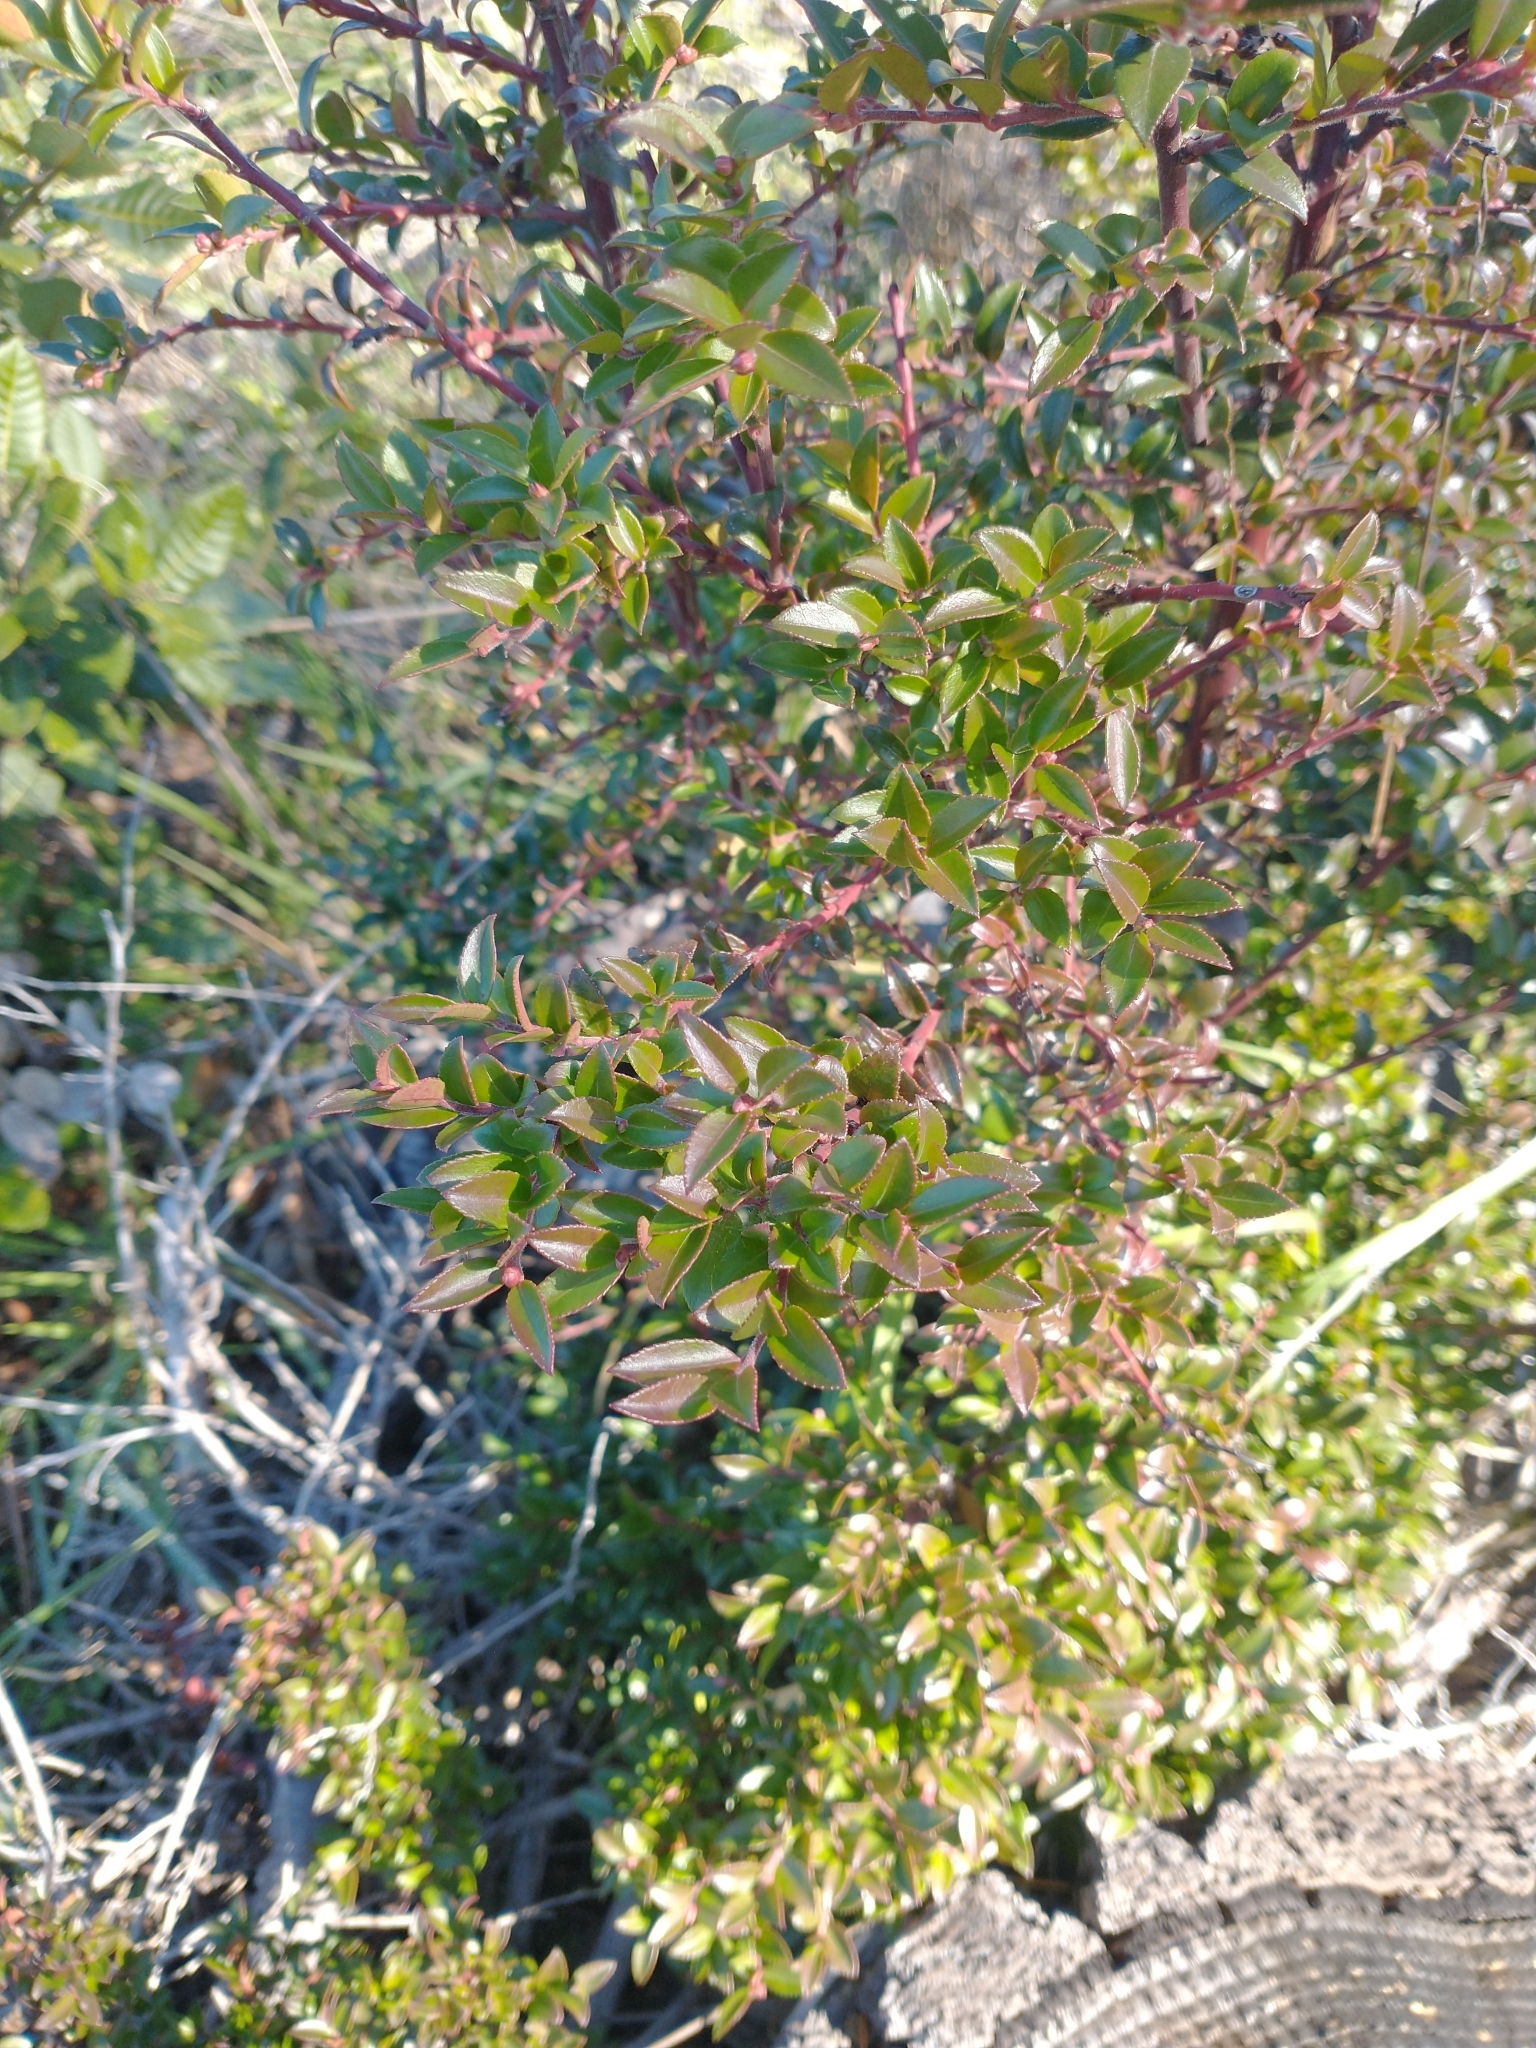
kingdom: Plantae
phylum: Tracheophyta
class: Magnoliopsida
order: Ericales
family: Ericaceae
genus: Vaccinium
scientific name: Vaccinium ovatum
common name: California-huckleberry
